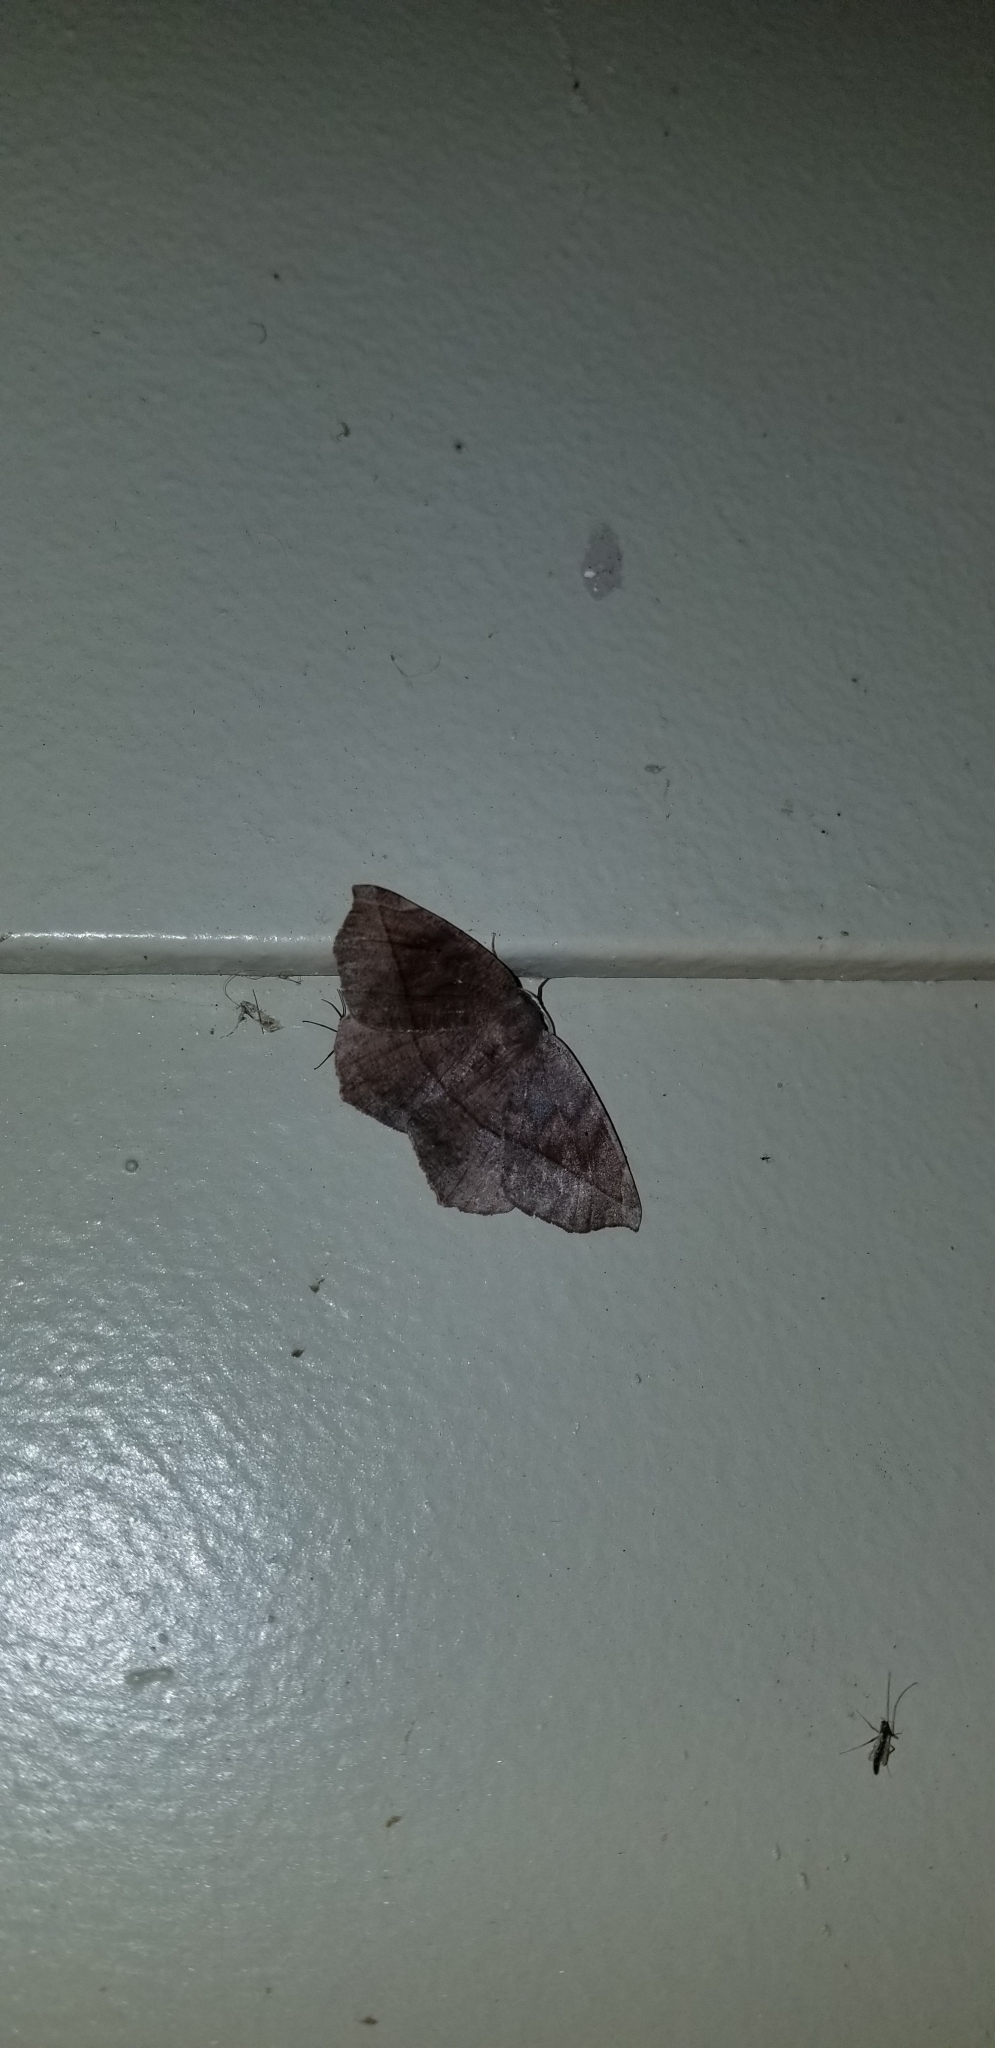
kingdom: Animalia
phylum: Arthropoda
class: Insecta
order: Lepidoptera
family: Geometridae
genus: Eutrapela
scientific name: Eutrapela clemataria
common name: Curved-toothed geometer
